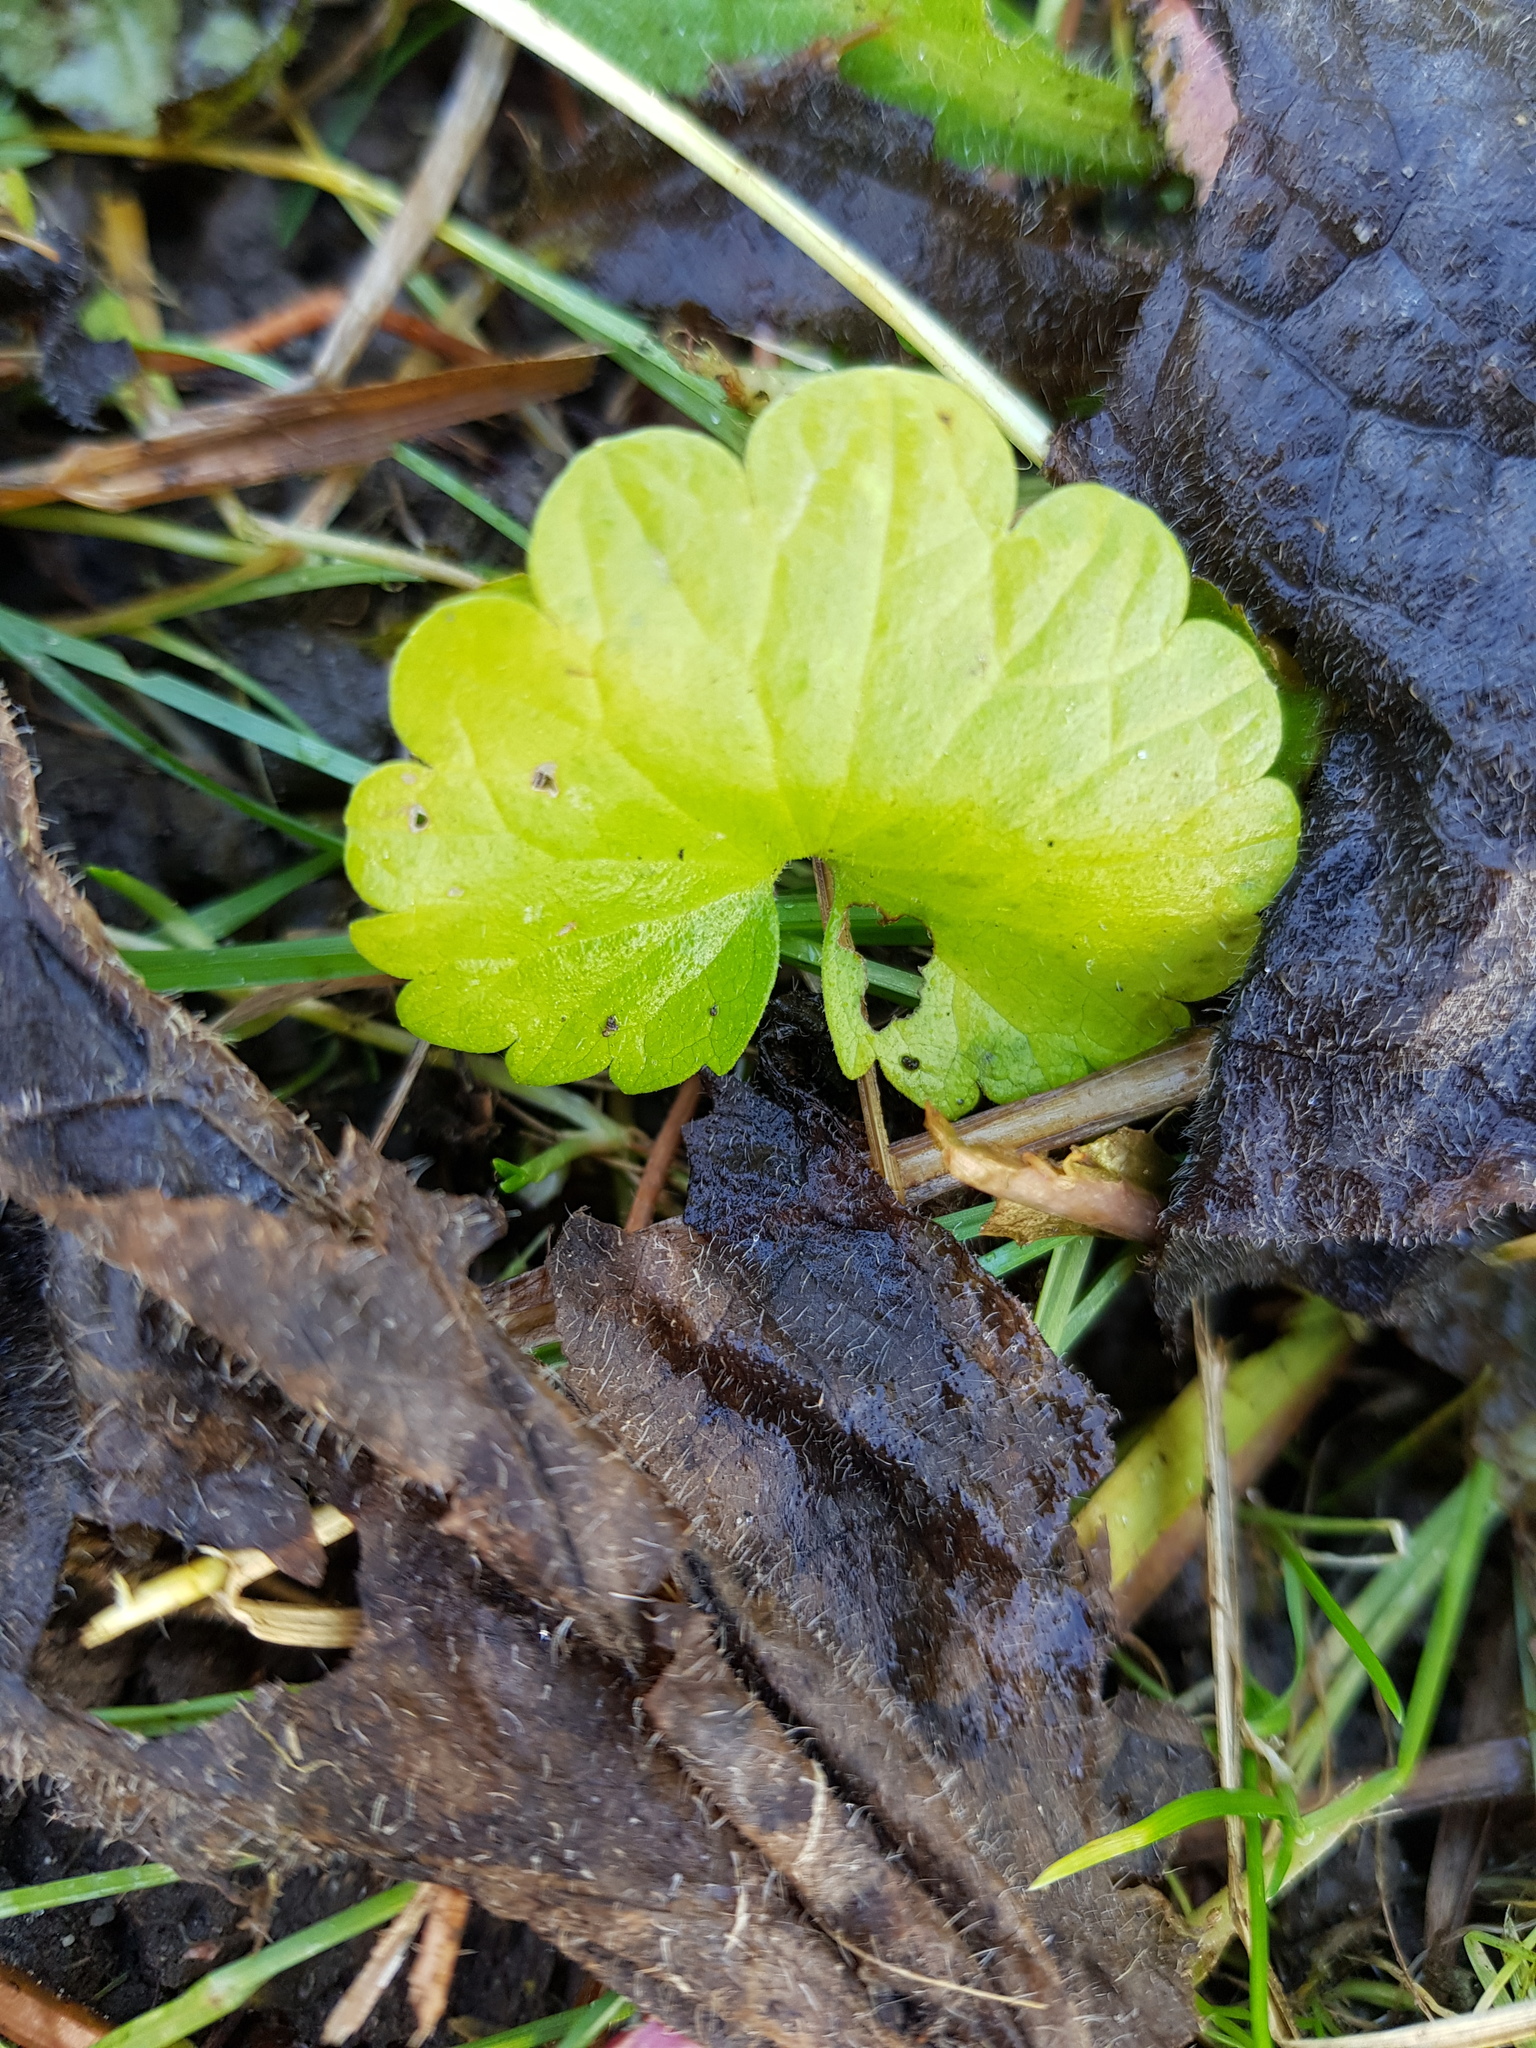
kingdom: Plantae
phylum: Tracheophyta
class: Magnoliopsida
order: Lamiales
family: Lamiaceae
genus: Glechoma
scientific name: Glechoma hederacea
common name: Ground ivy
